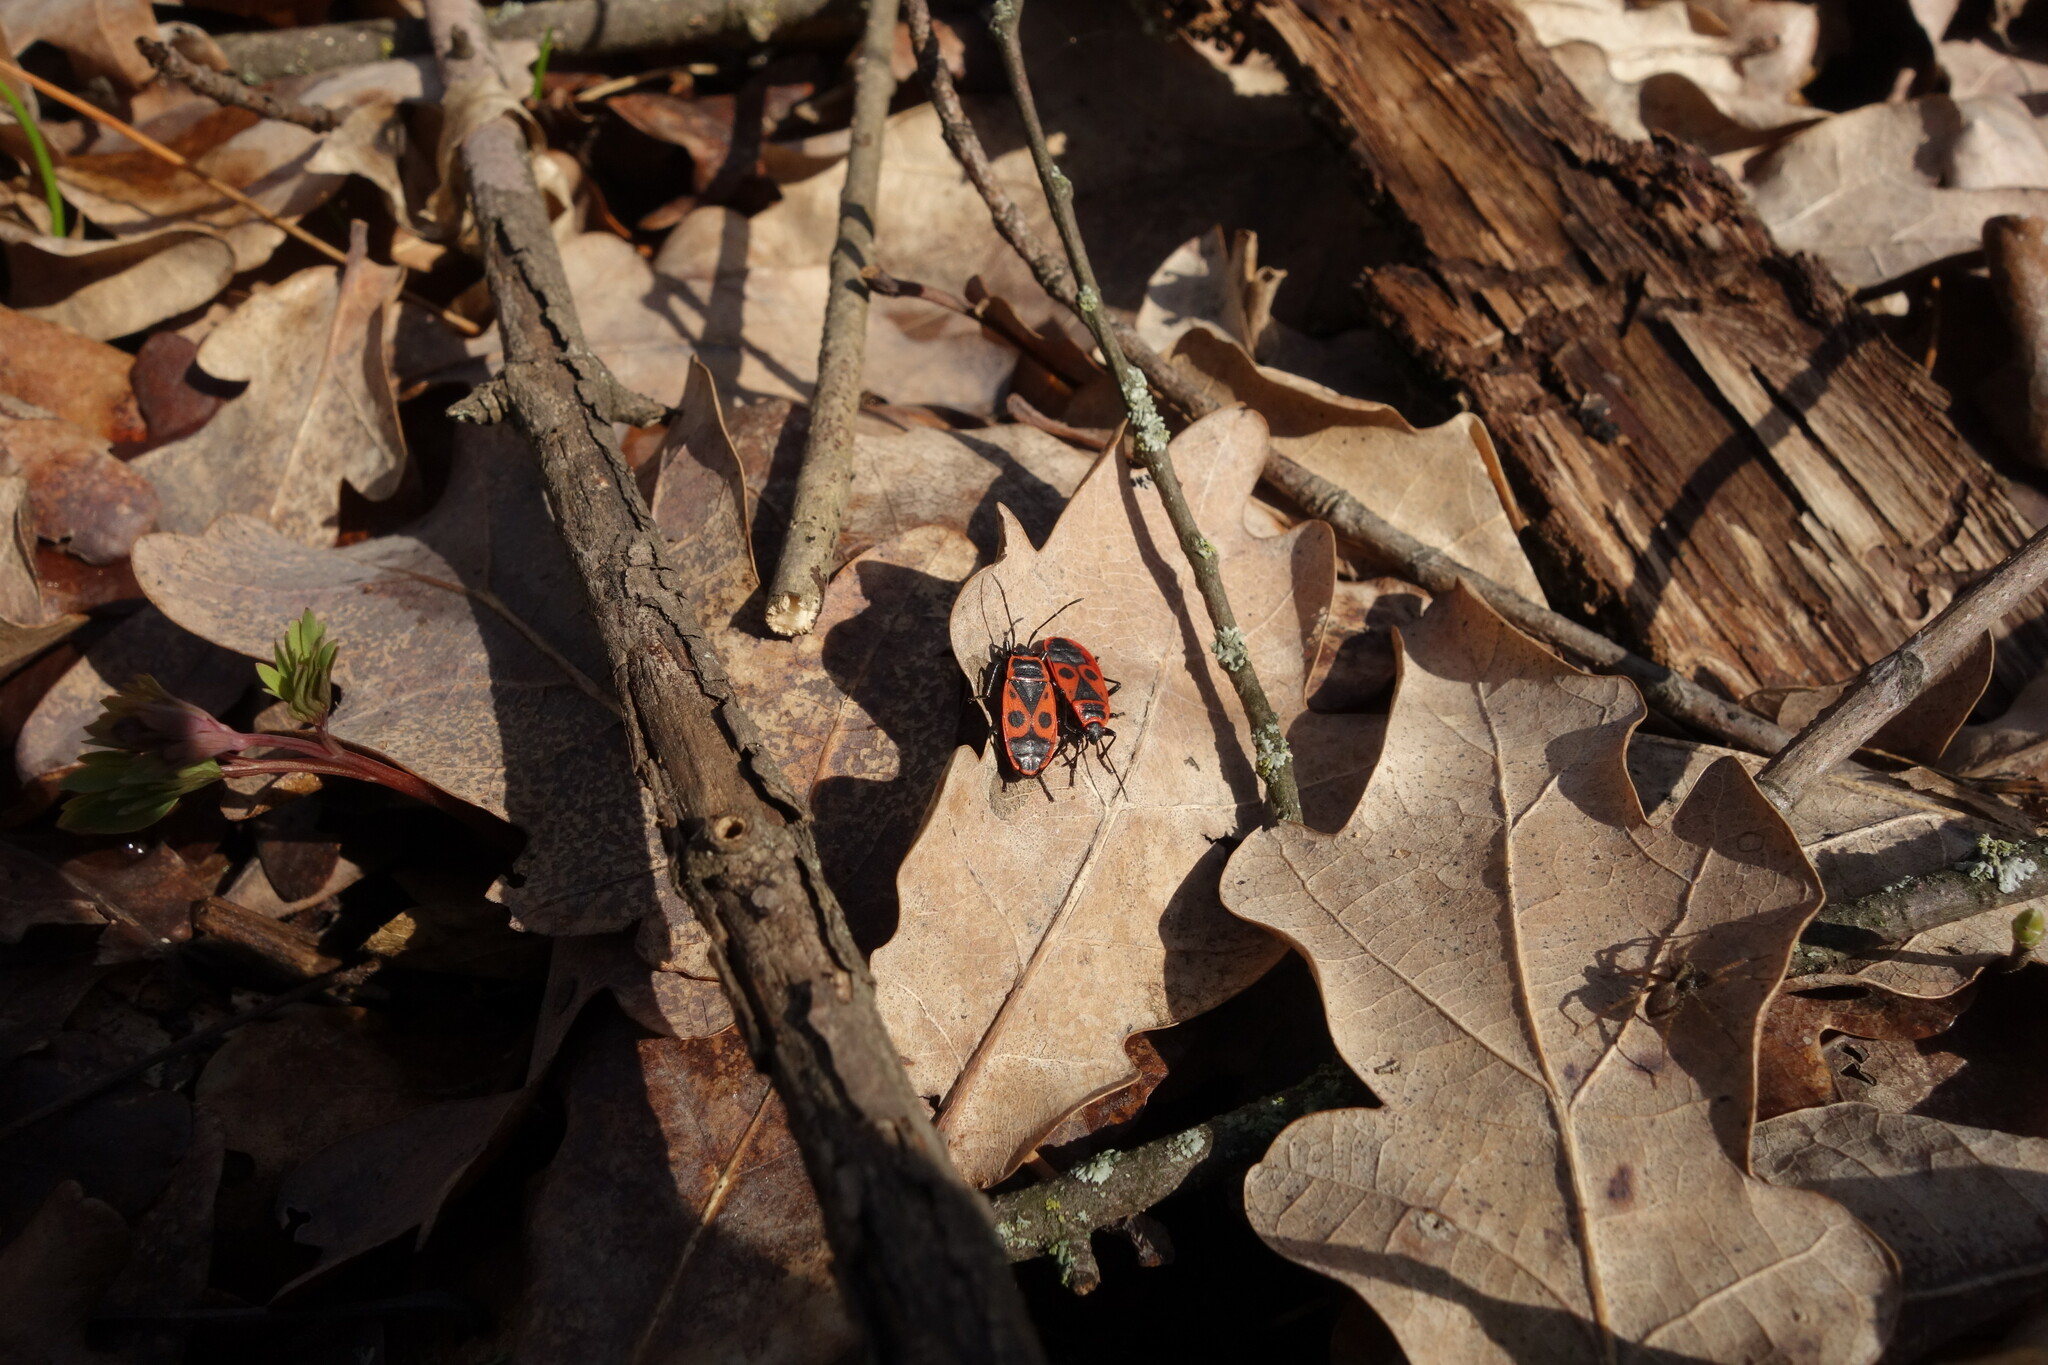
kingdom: Animalia
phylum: Arthropoda
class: Insecta
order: Hemiptera
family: Pyrrhocoridae
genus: Pyrrhocoris
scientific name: Pyrrhocoris apterus
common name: Firebug
